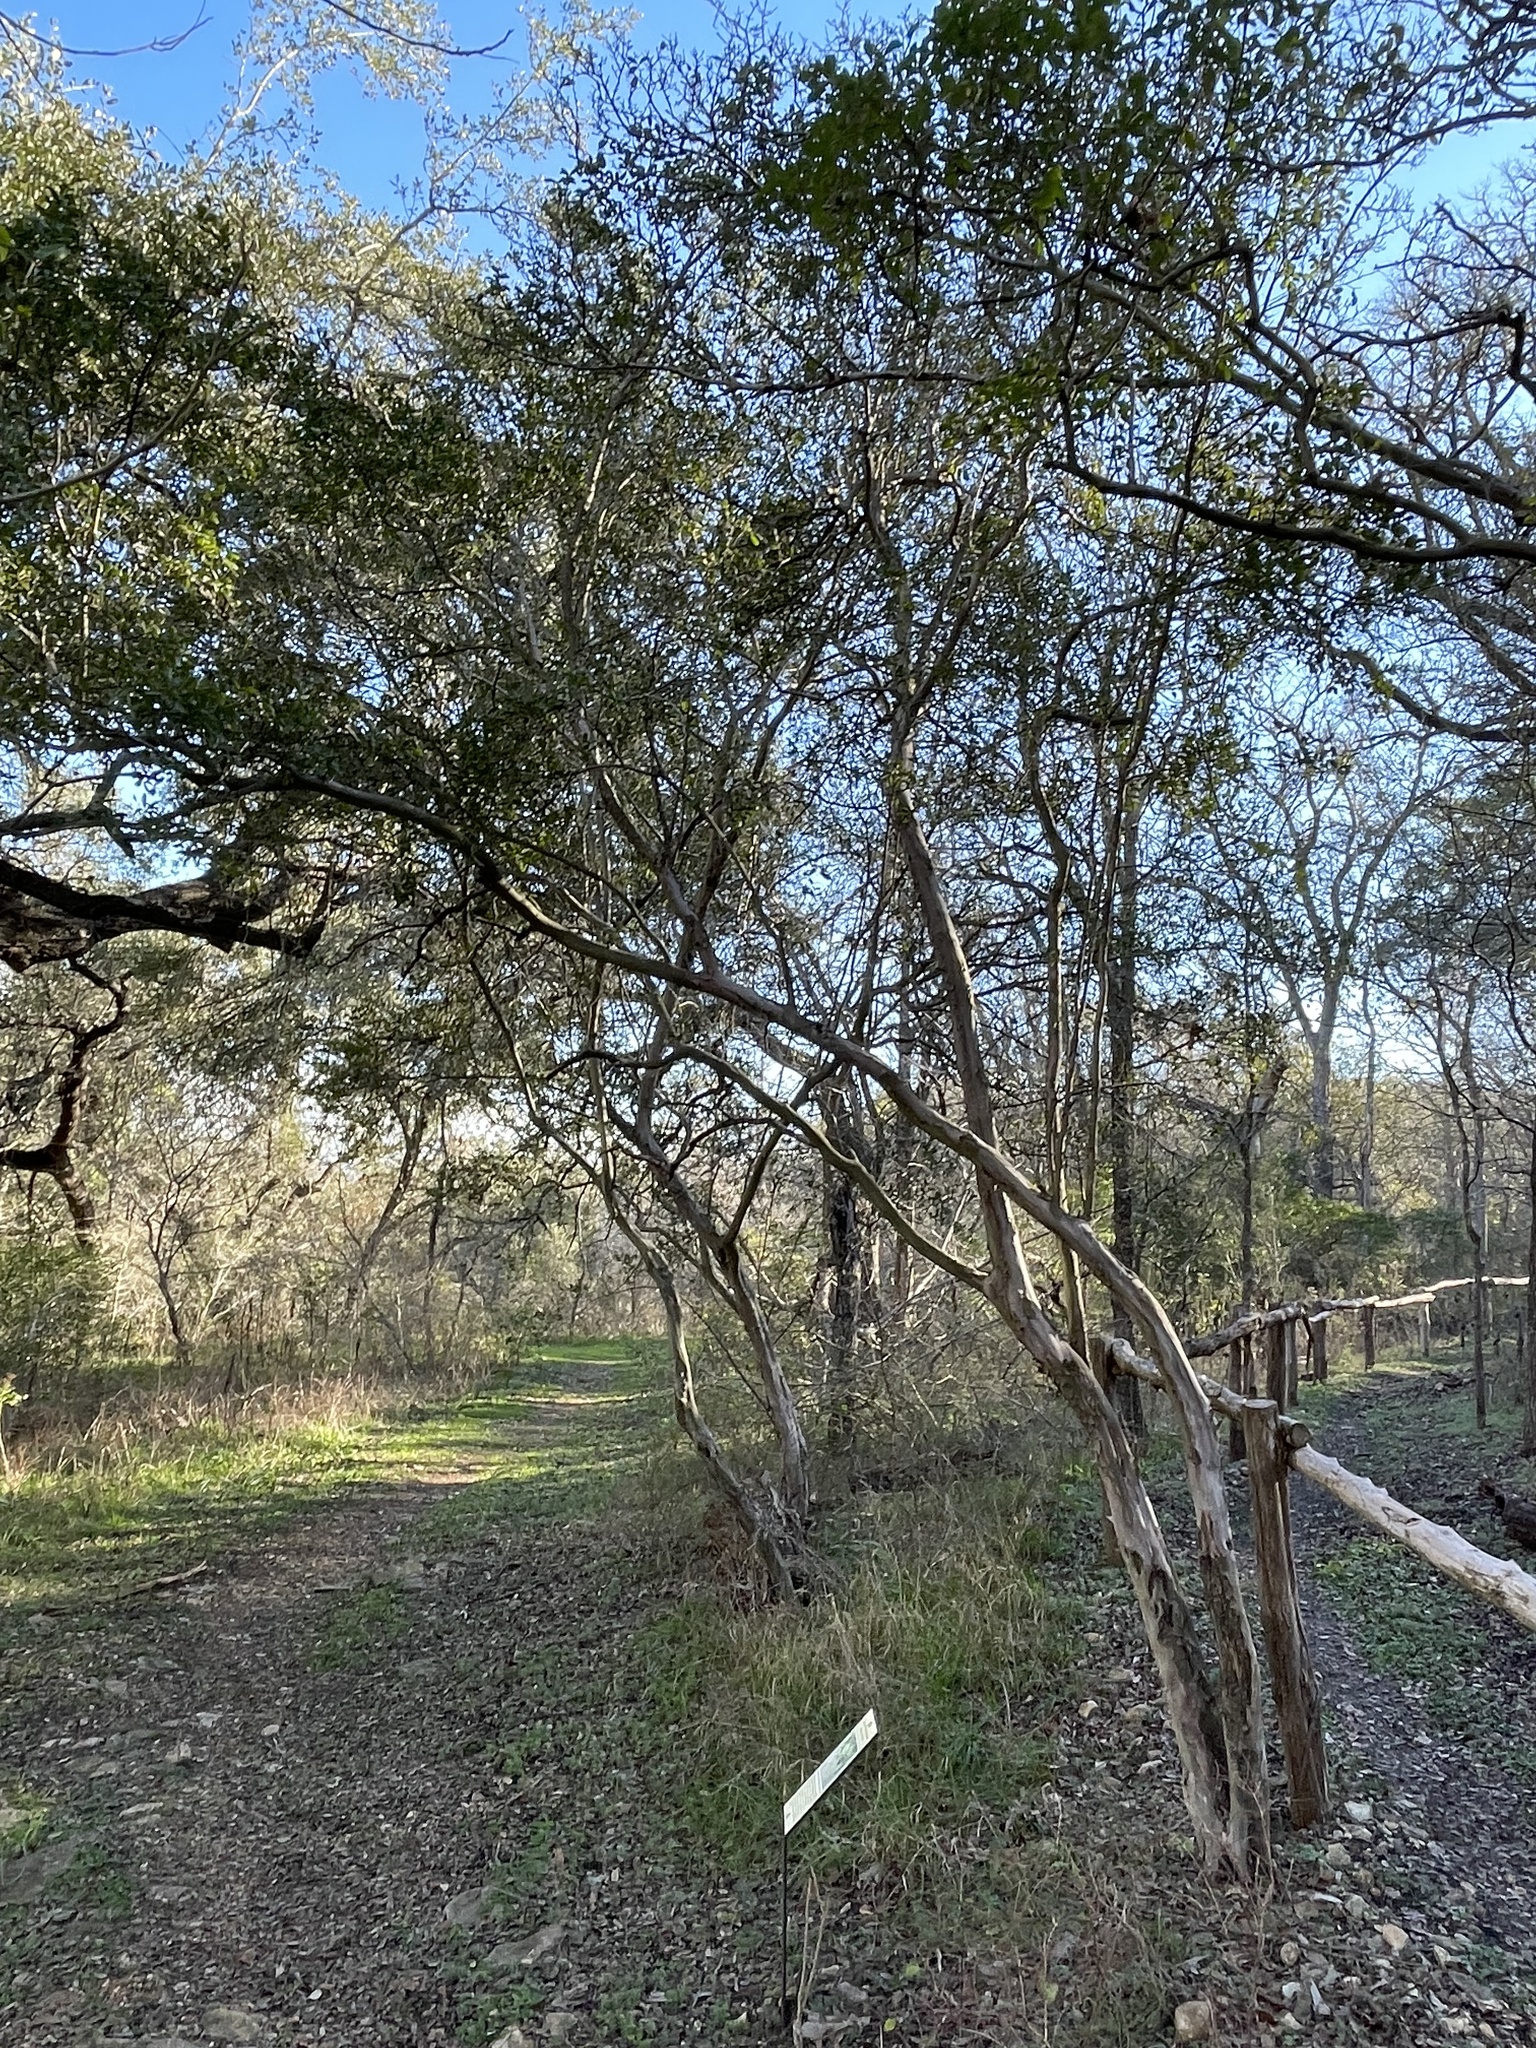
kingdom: Plantae
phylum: Tracheophyta
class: Magnoliopsida
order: Ericales
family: Ebenaceae
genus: Diospyros
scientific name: Diospyros texana
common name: Texas persimmon
